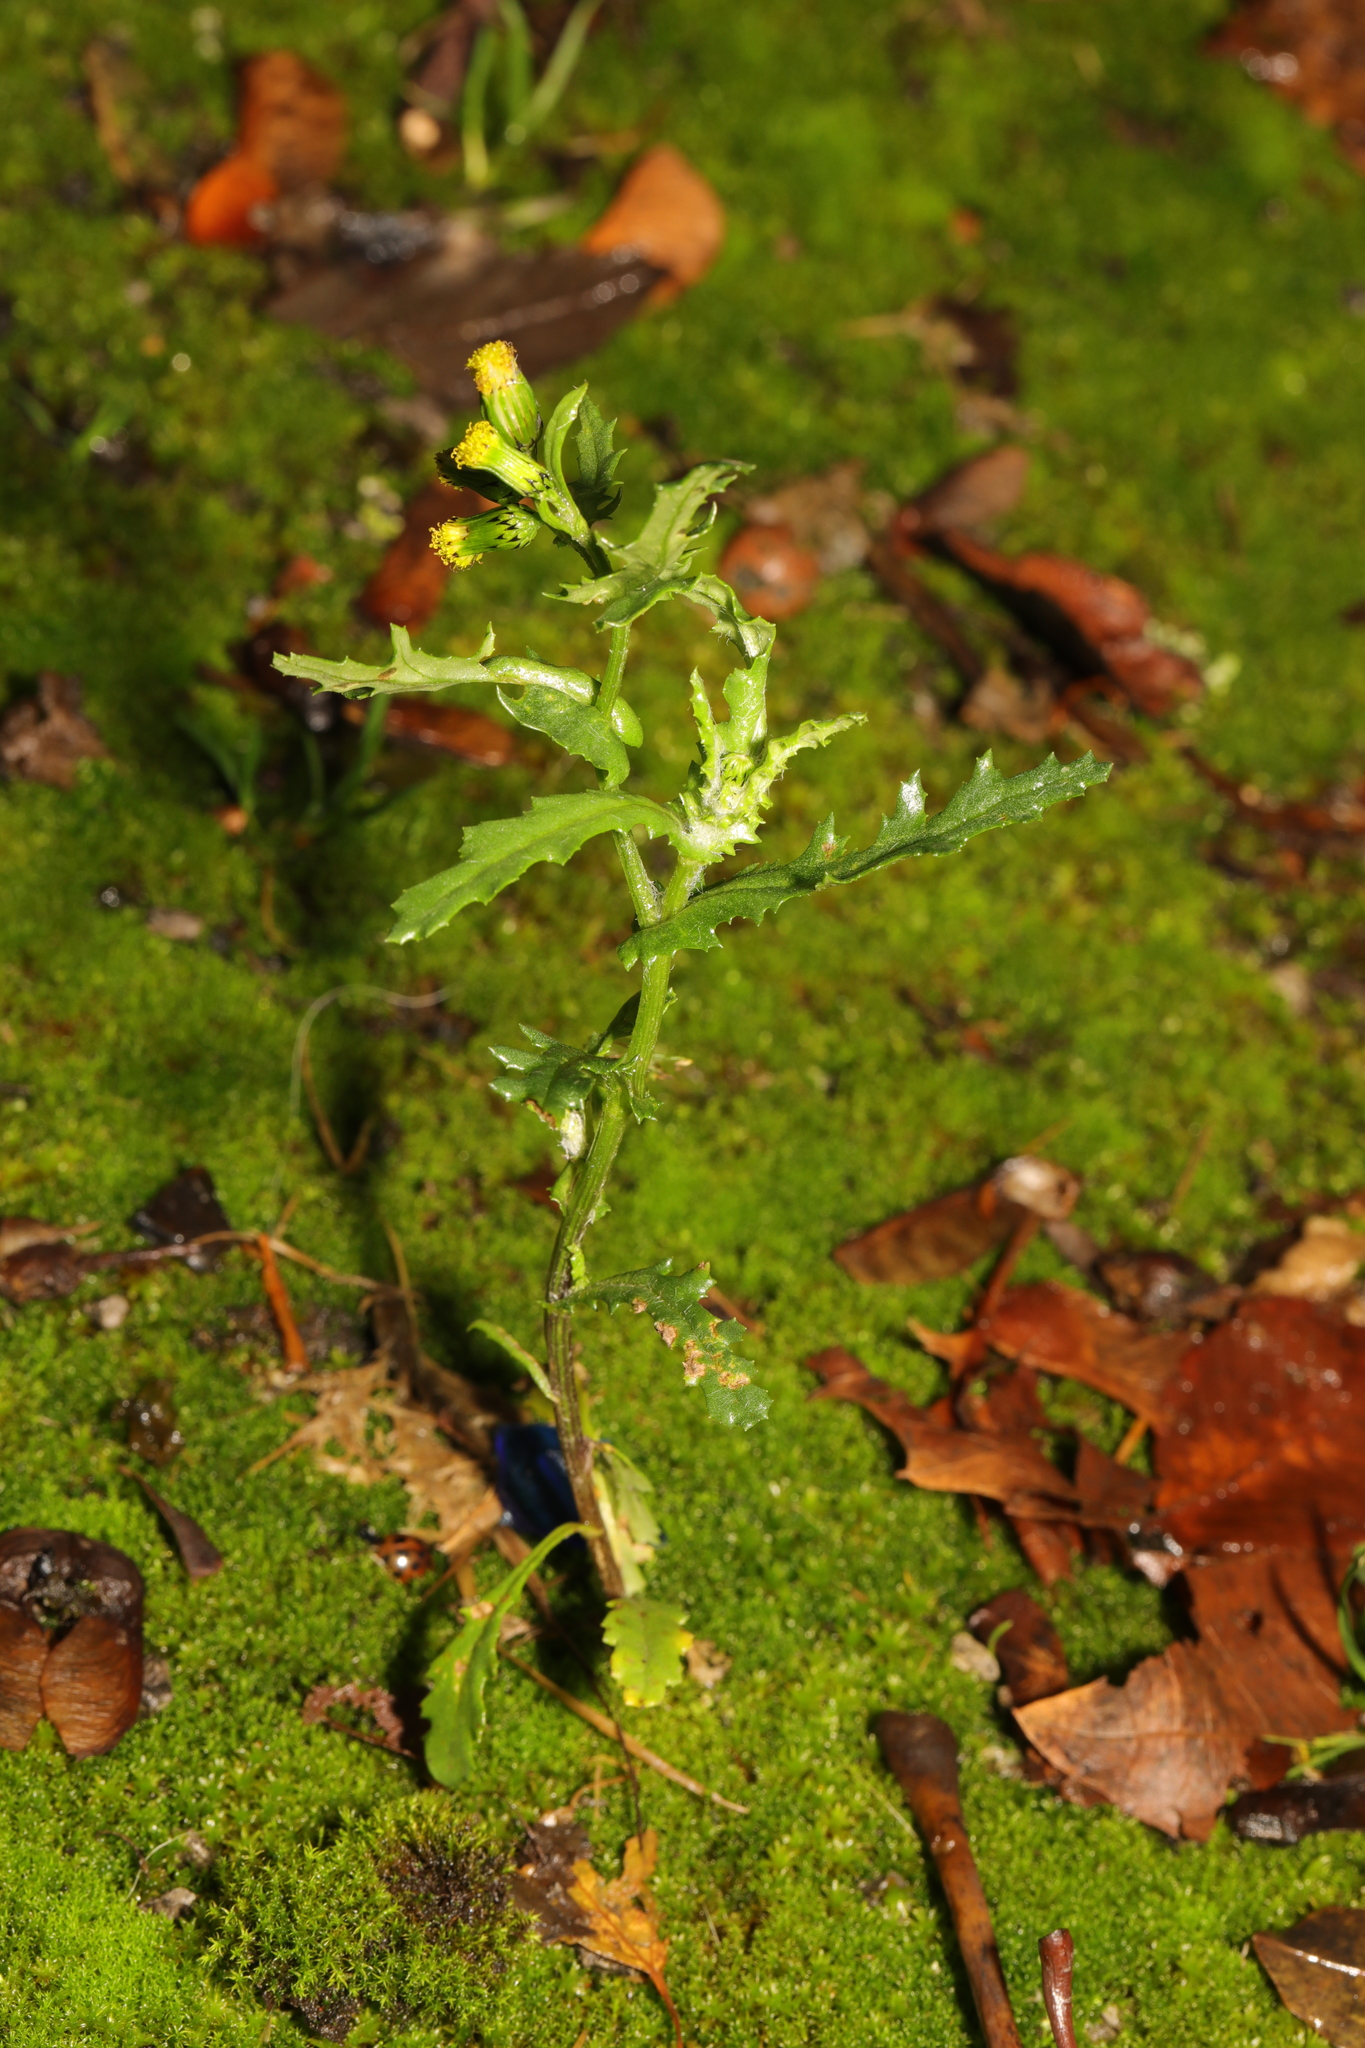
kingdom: Plantae
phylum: Tracheophyta
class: Magnoliopsida
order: Asterales
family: Asteraceae
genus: Senecio
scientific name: Senecio vulgaris
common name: Old-man-in-the-spring
